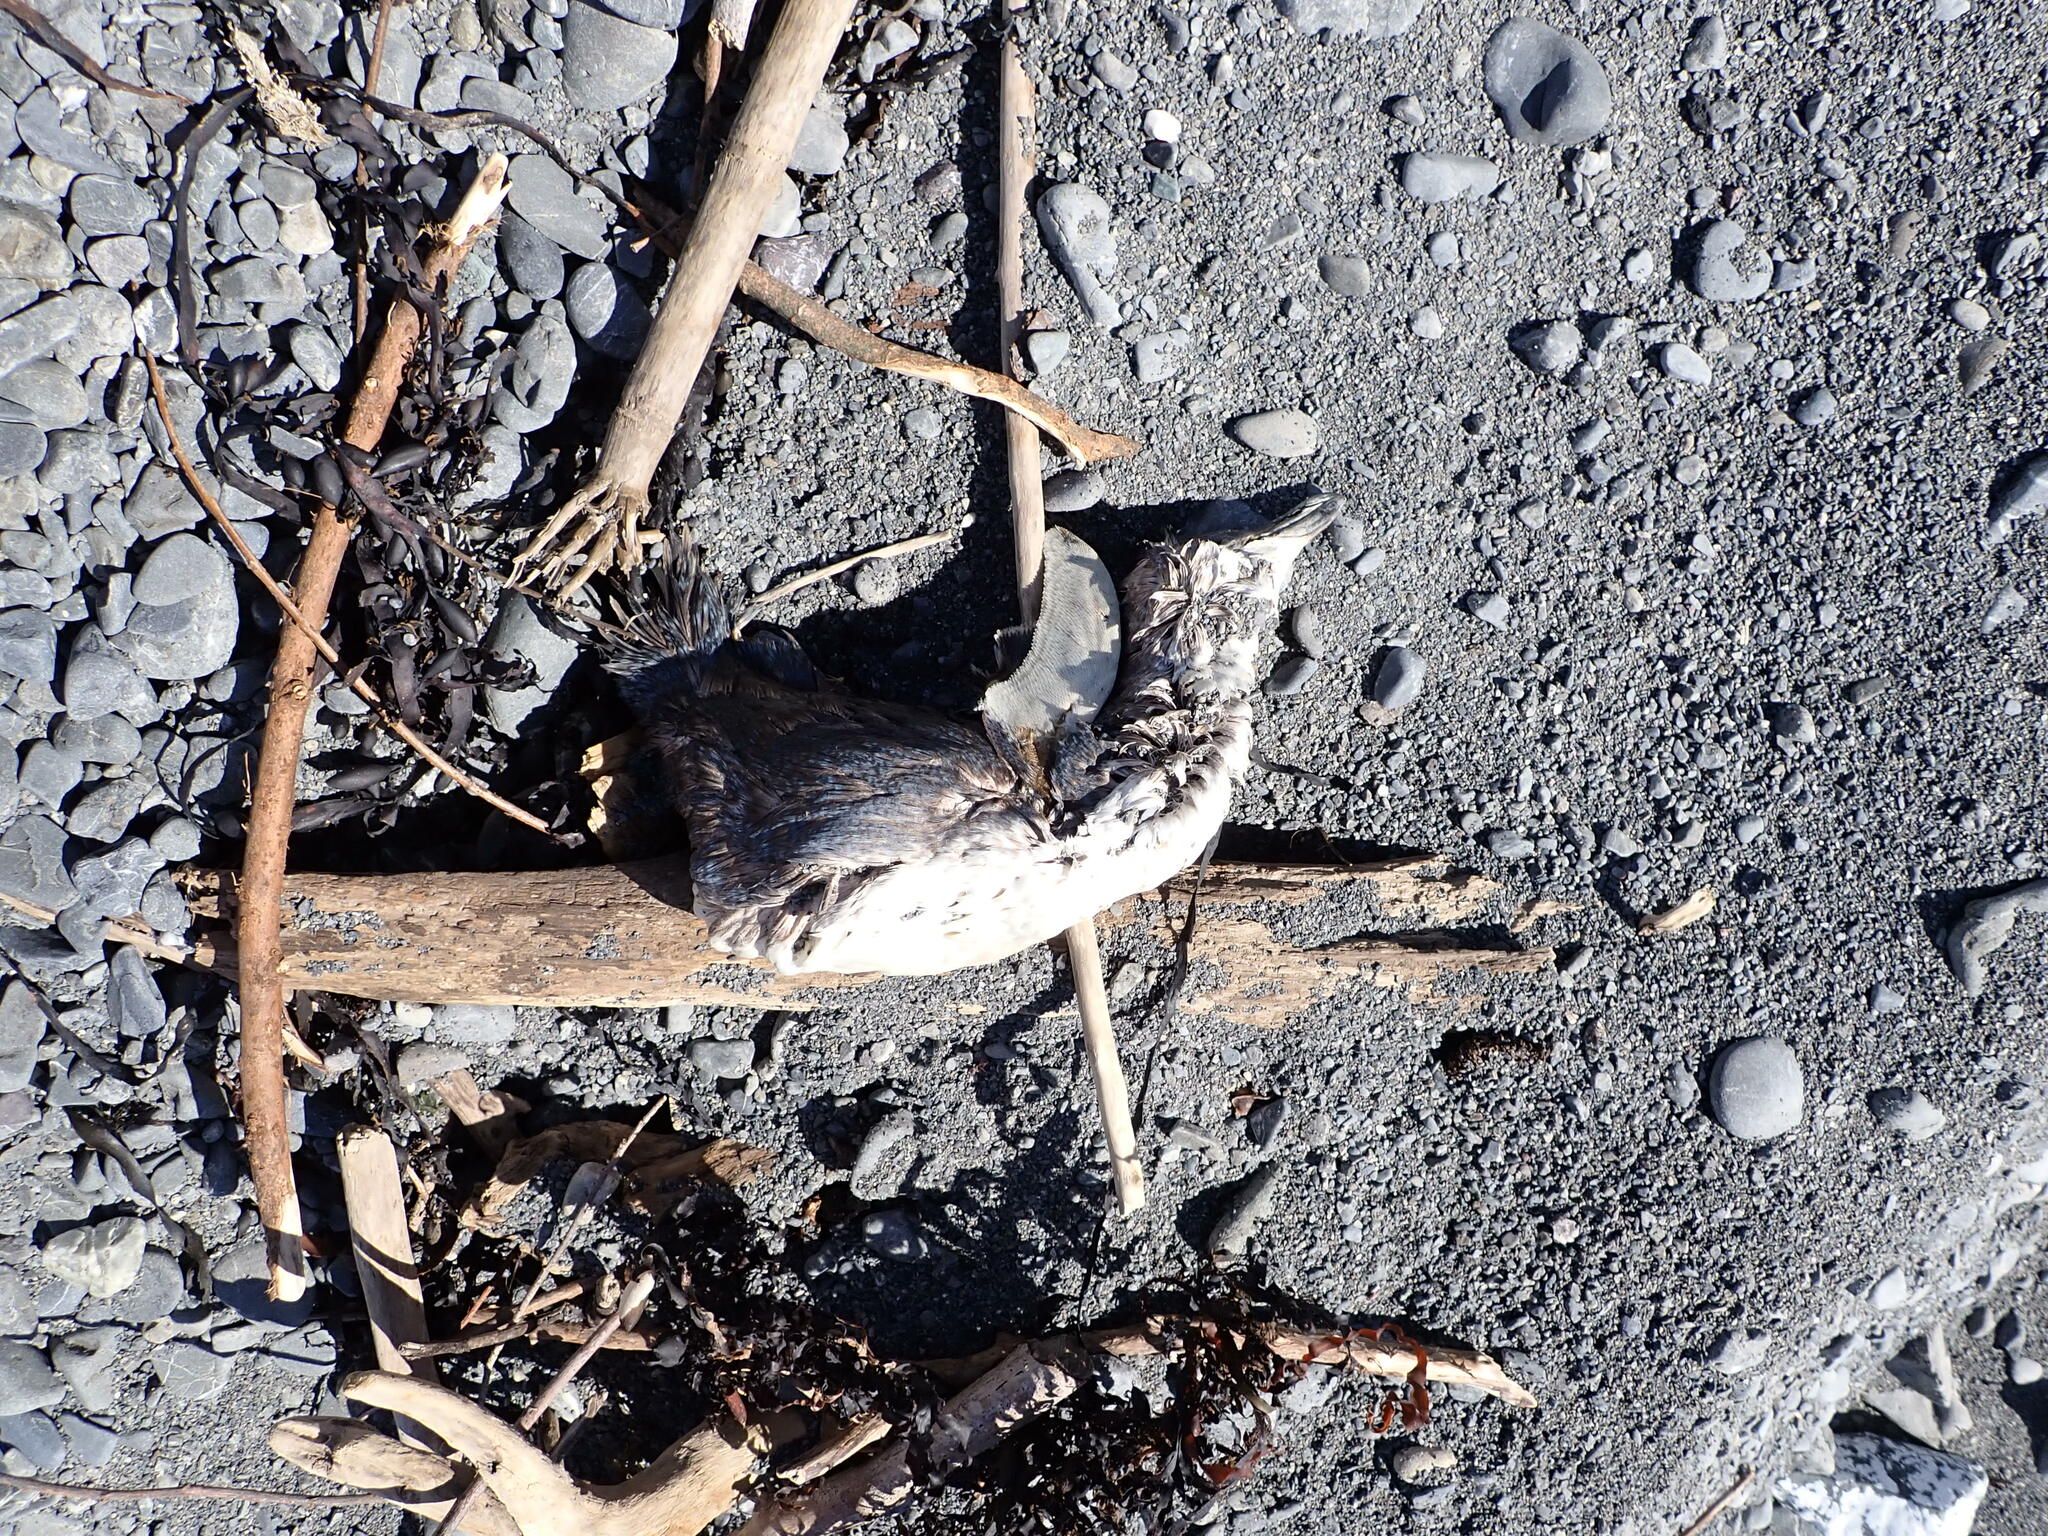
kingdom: Animalia
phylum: Chordata
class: Aves
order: Sphenisciformes
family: Spheniscidae
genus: Eudyptula
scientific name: Eudyptula minor
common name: Little penguin
